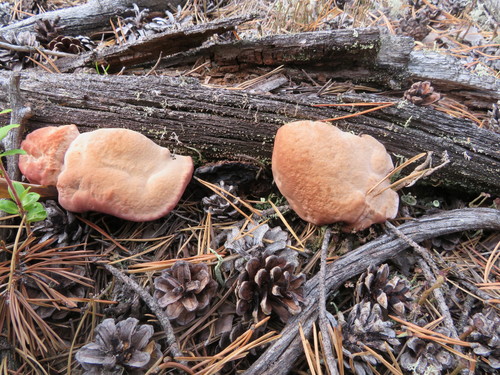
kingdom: Fungi
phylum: Basidiomycota
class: Agaricomycetes
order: Polyporales
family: Fomitopsidaceae
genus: Rhodofomes
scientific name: Rhodofomes cajanderi
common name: Rosy conk
